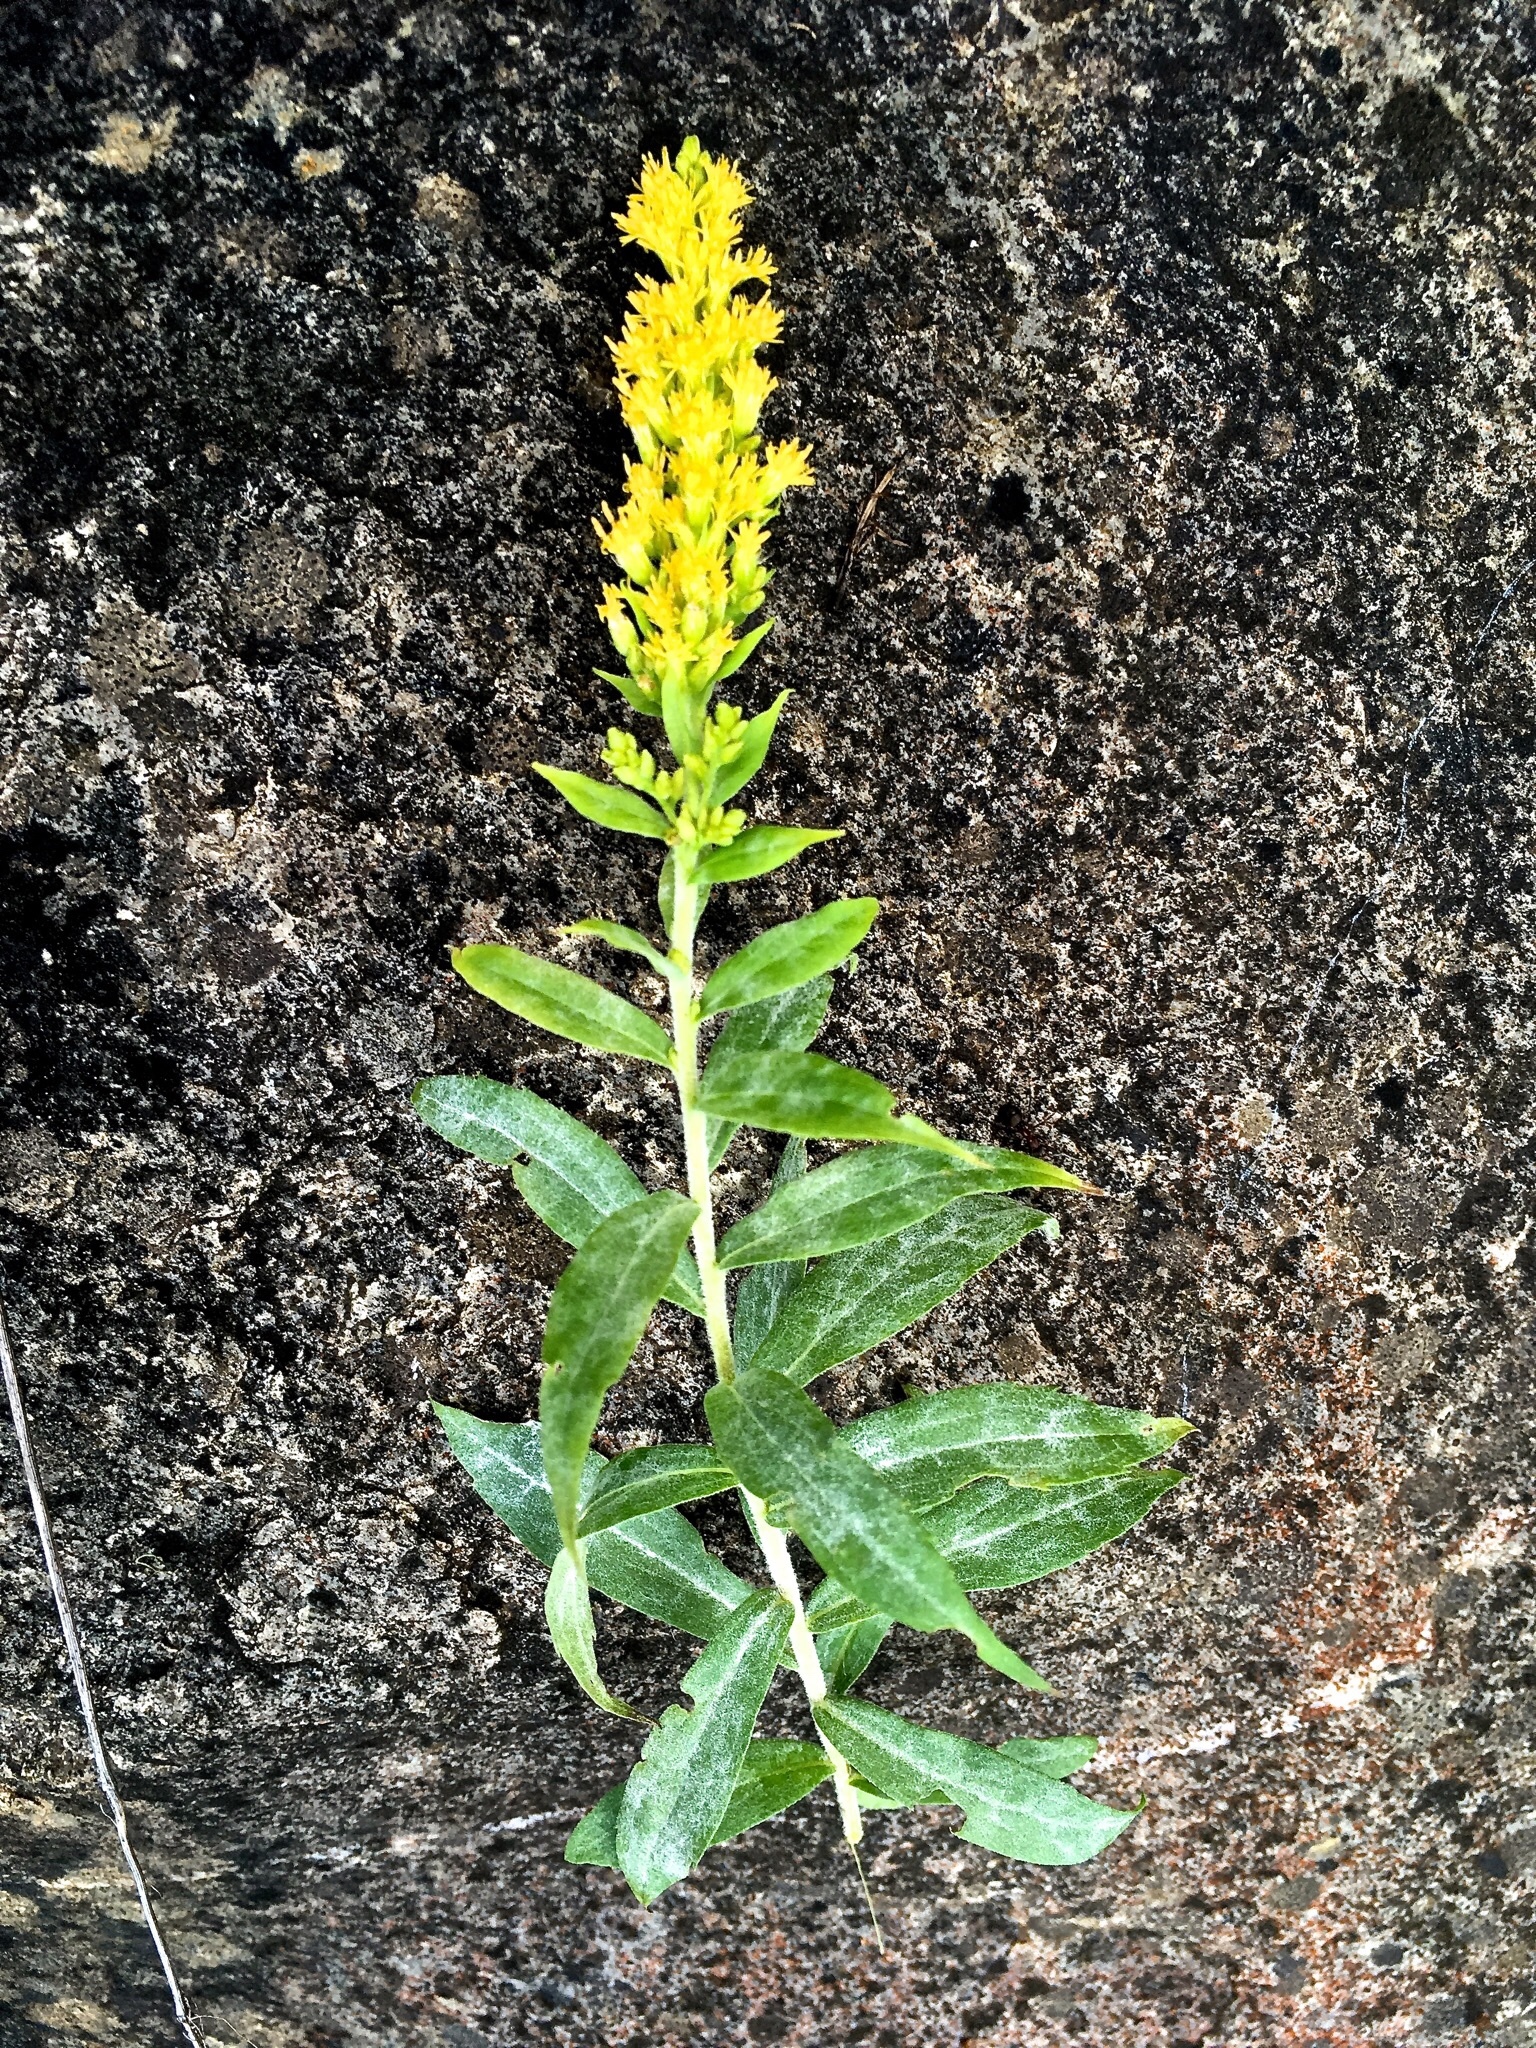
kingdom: Plantae
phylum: Tracheophyta
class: Magnoliopsida
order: Asterales
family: Asteraceae
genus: Solidago
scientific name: Solidago canadensis
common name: Canada goldenrod
